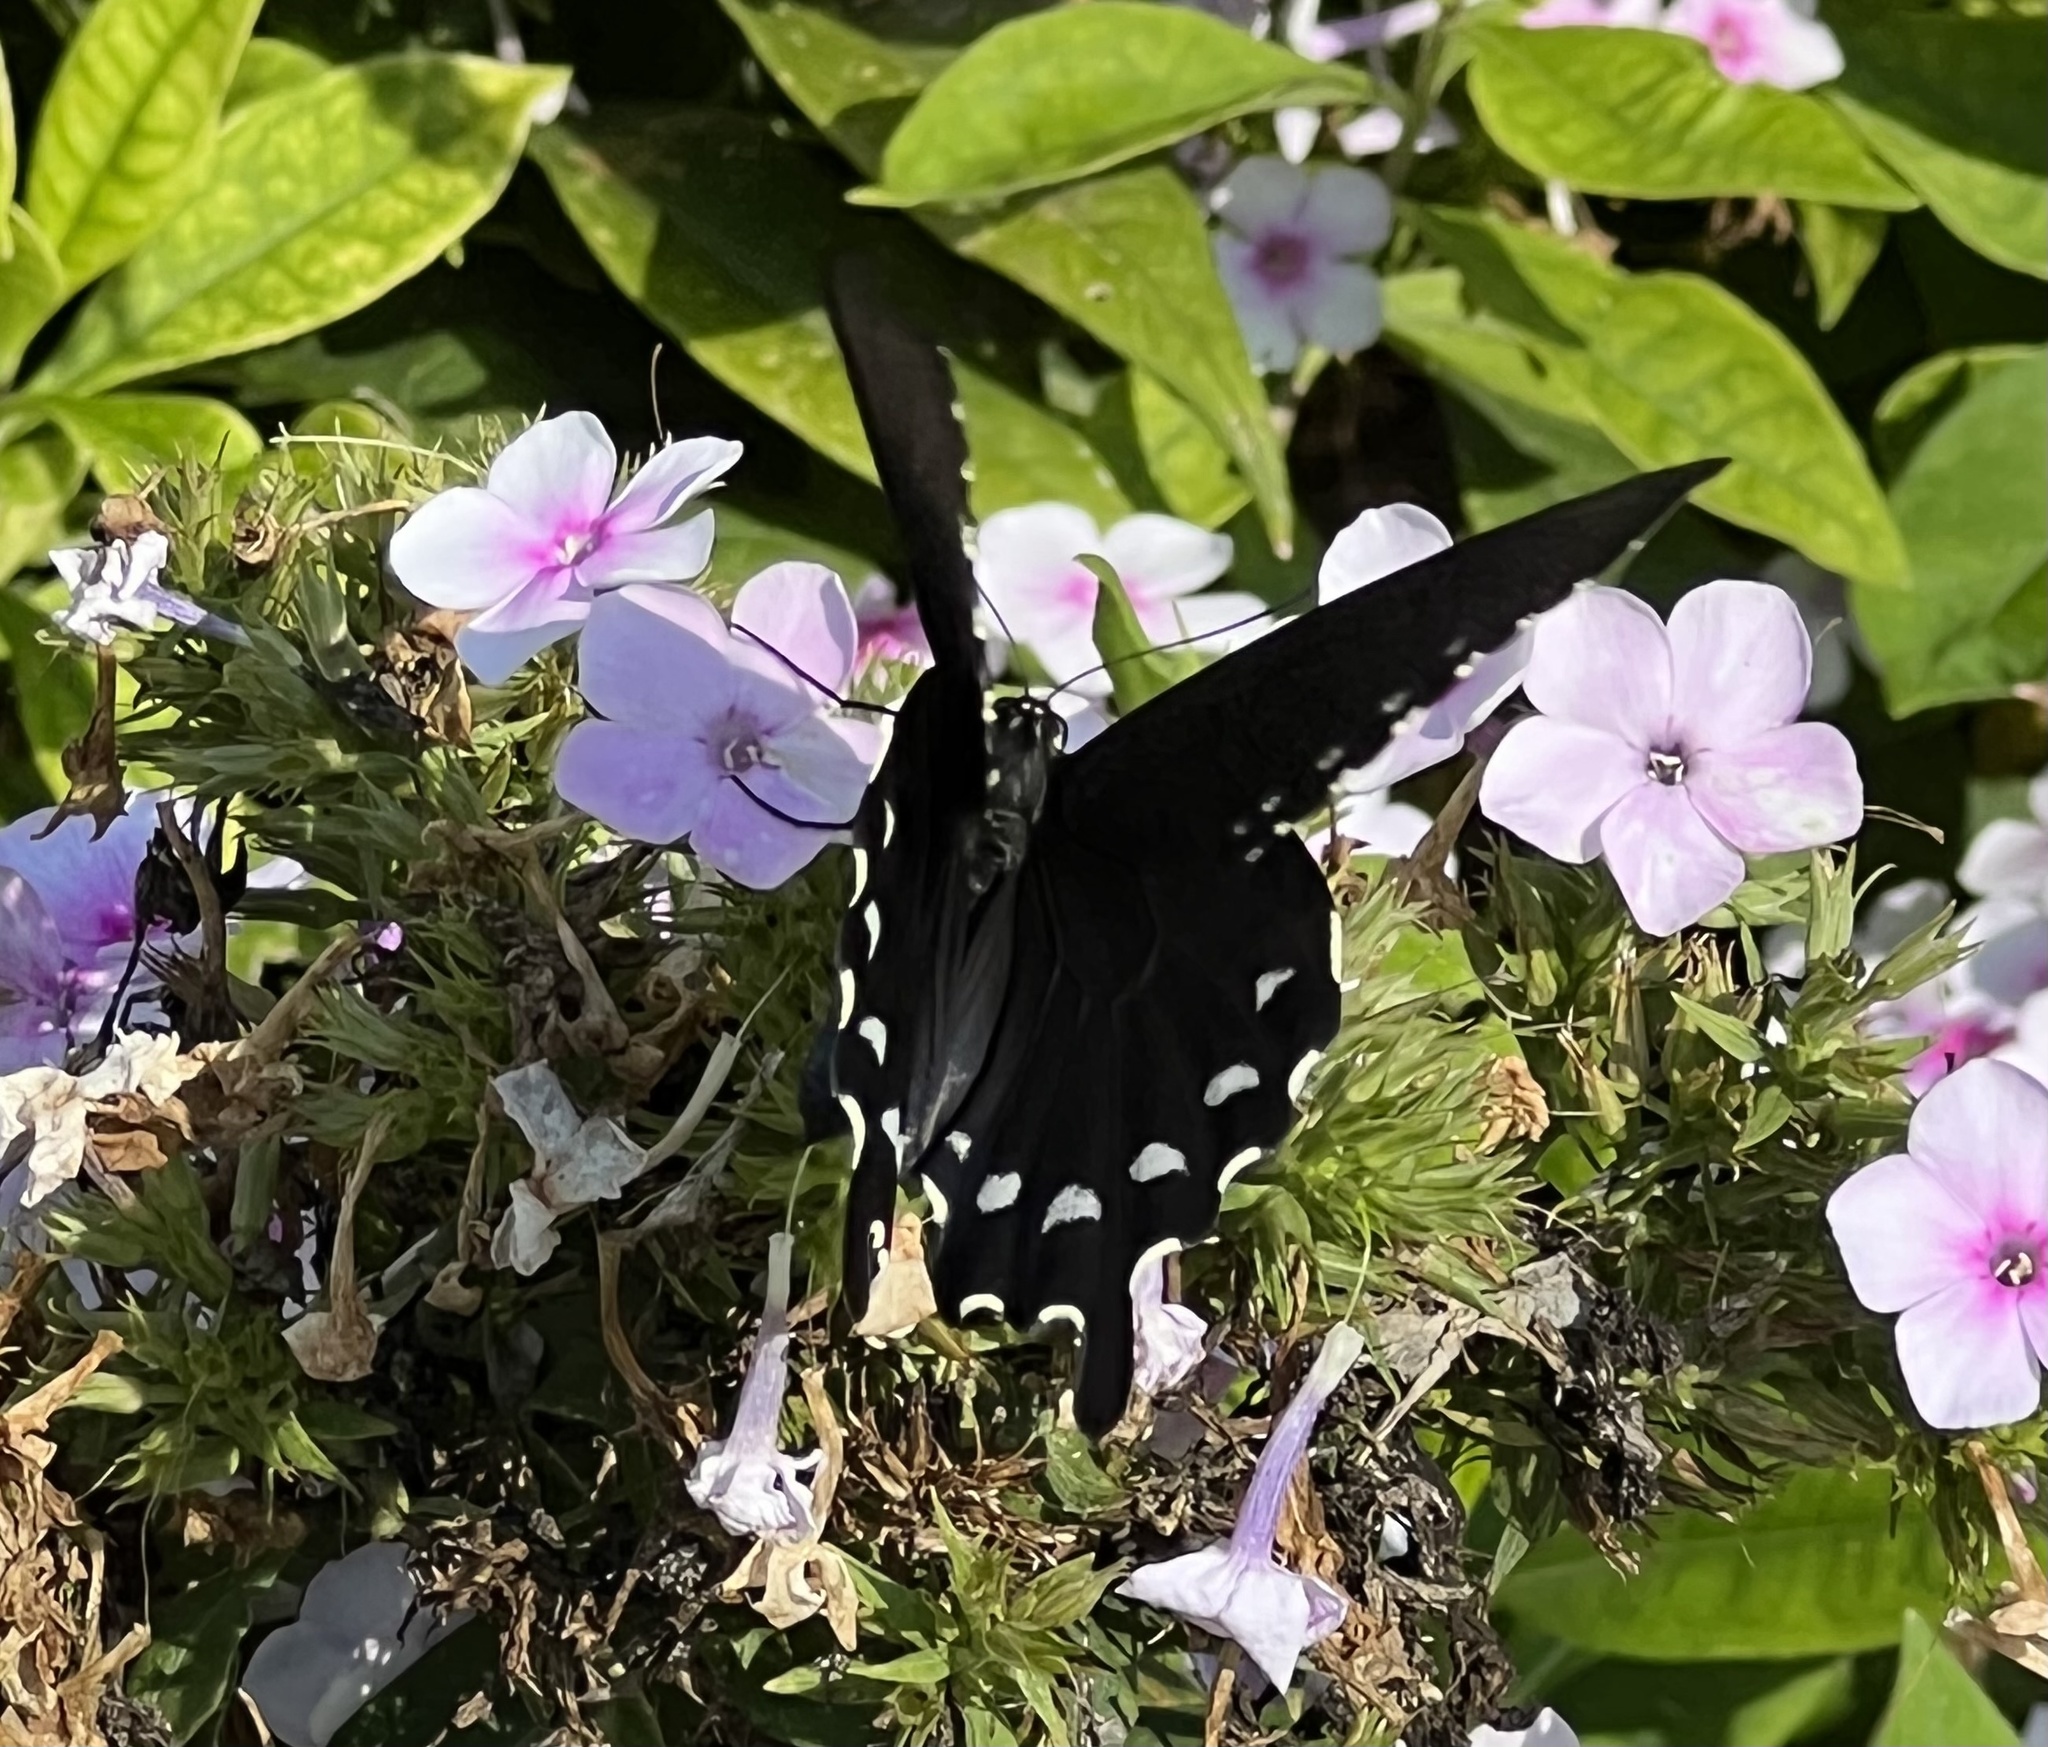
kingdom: Animalia
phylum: Arthropoda
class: Insecta
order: Lepidoptera
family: Papilionidae
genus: Battus
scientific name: Battus philenor
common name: Pipevine swallowtail
